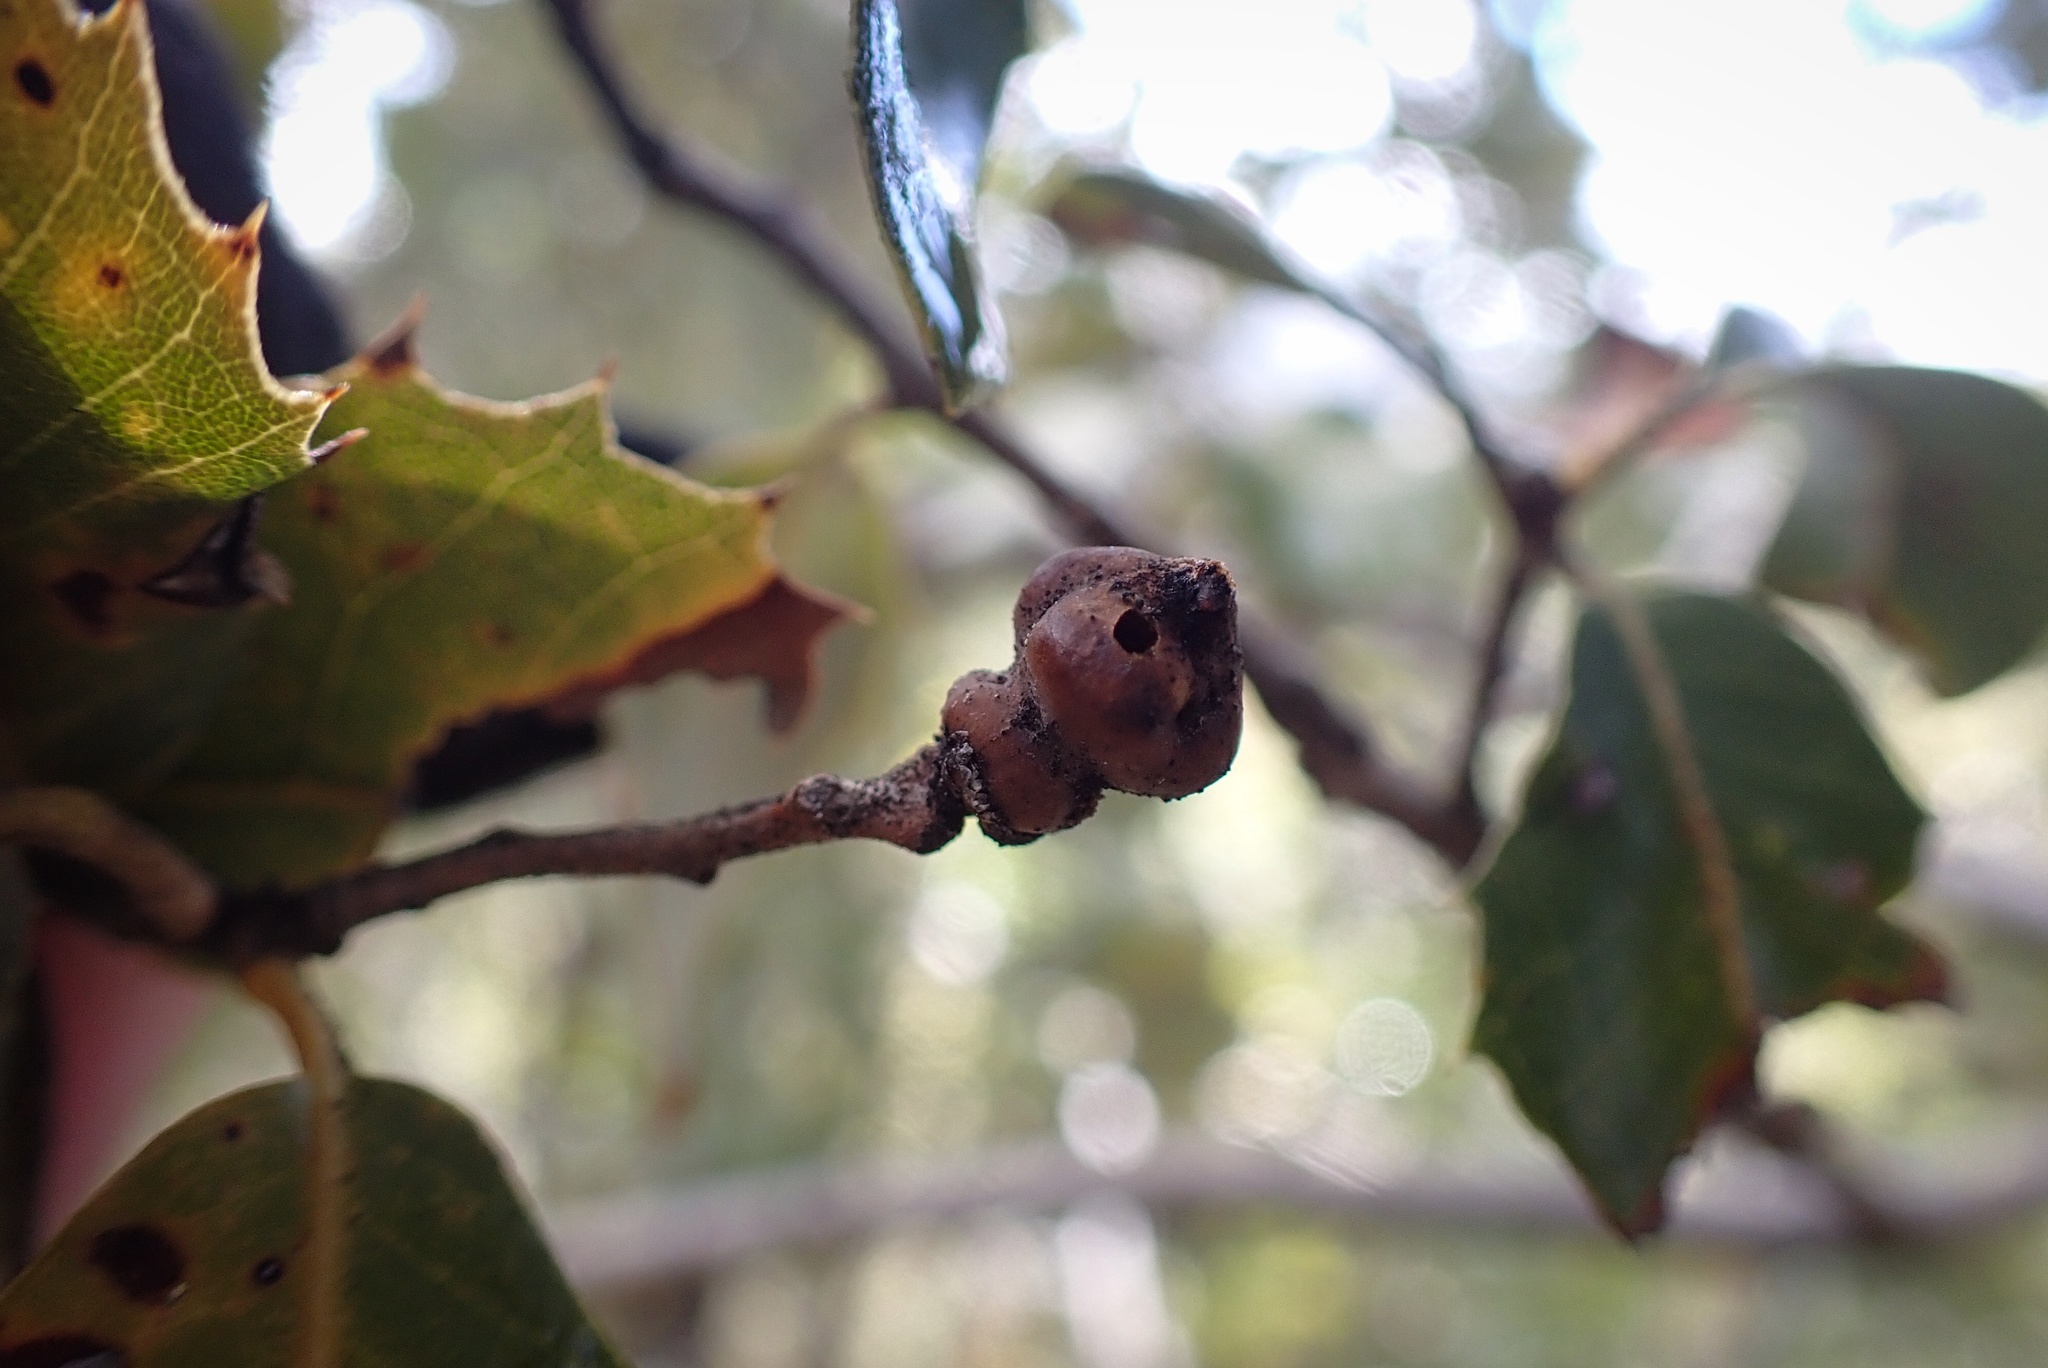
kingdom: Animalia
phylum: Arthropoda
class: Insecta
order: Hymenoptera
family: Cynipidae
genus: Heteroecus
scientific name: Heteroecus
